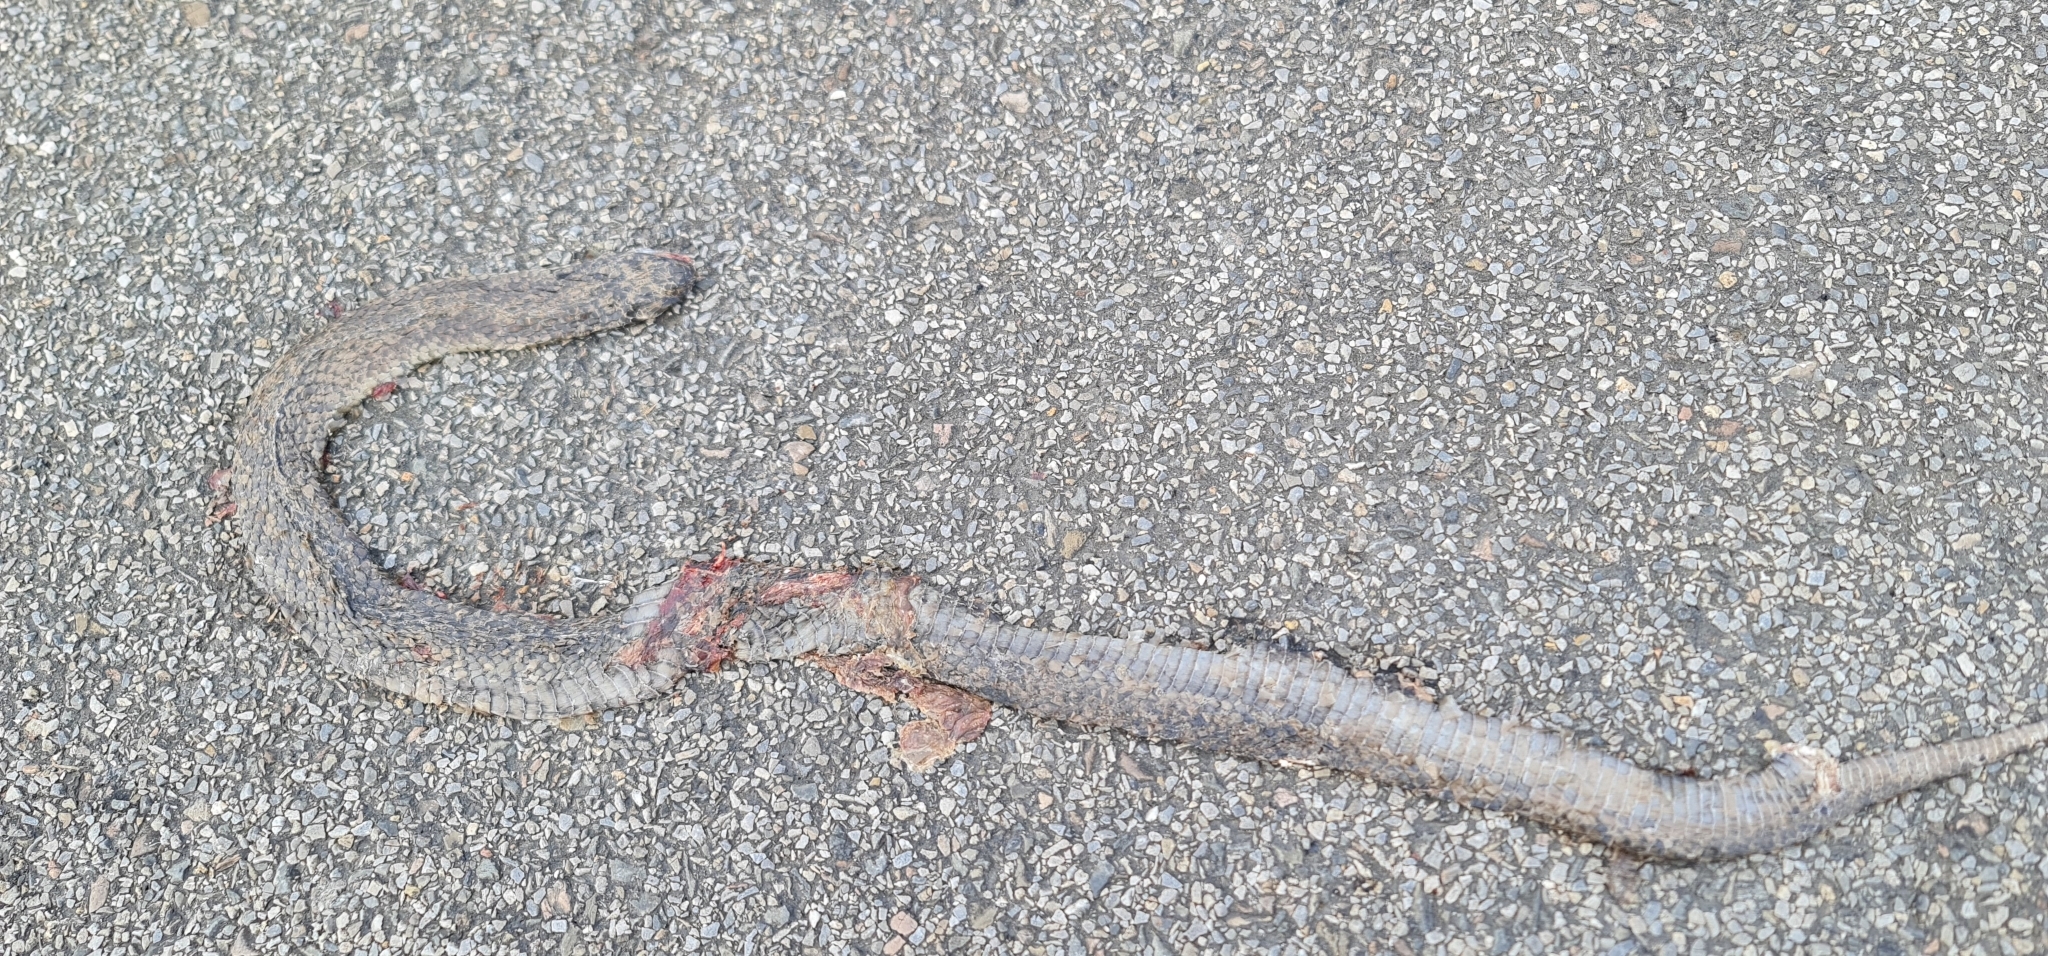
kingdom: Animalia
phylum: Chordata
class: Squamata
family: Elapidae
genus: Notechis
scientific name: Notechis scutatus
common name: Mainland tiger snake
